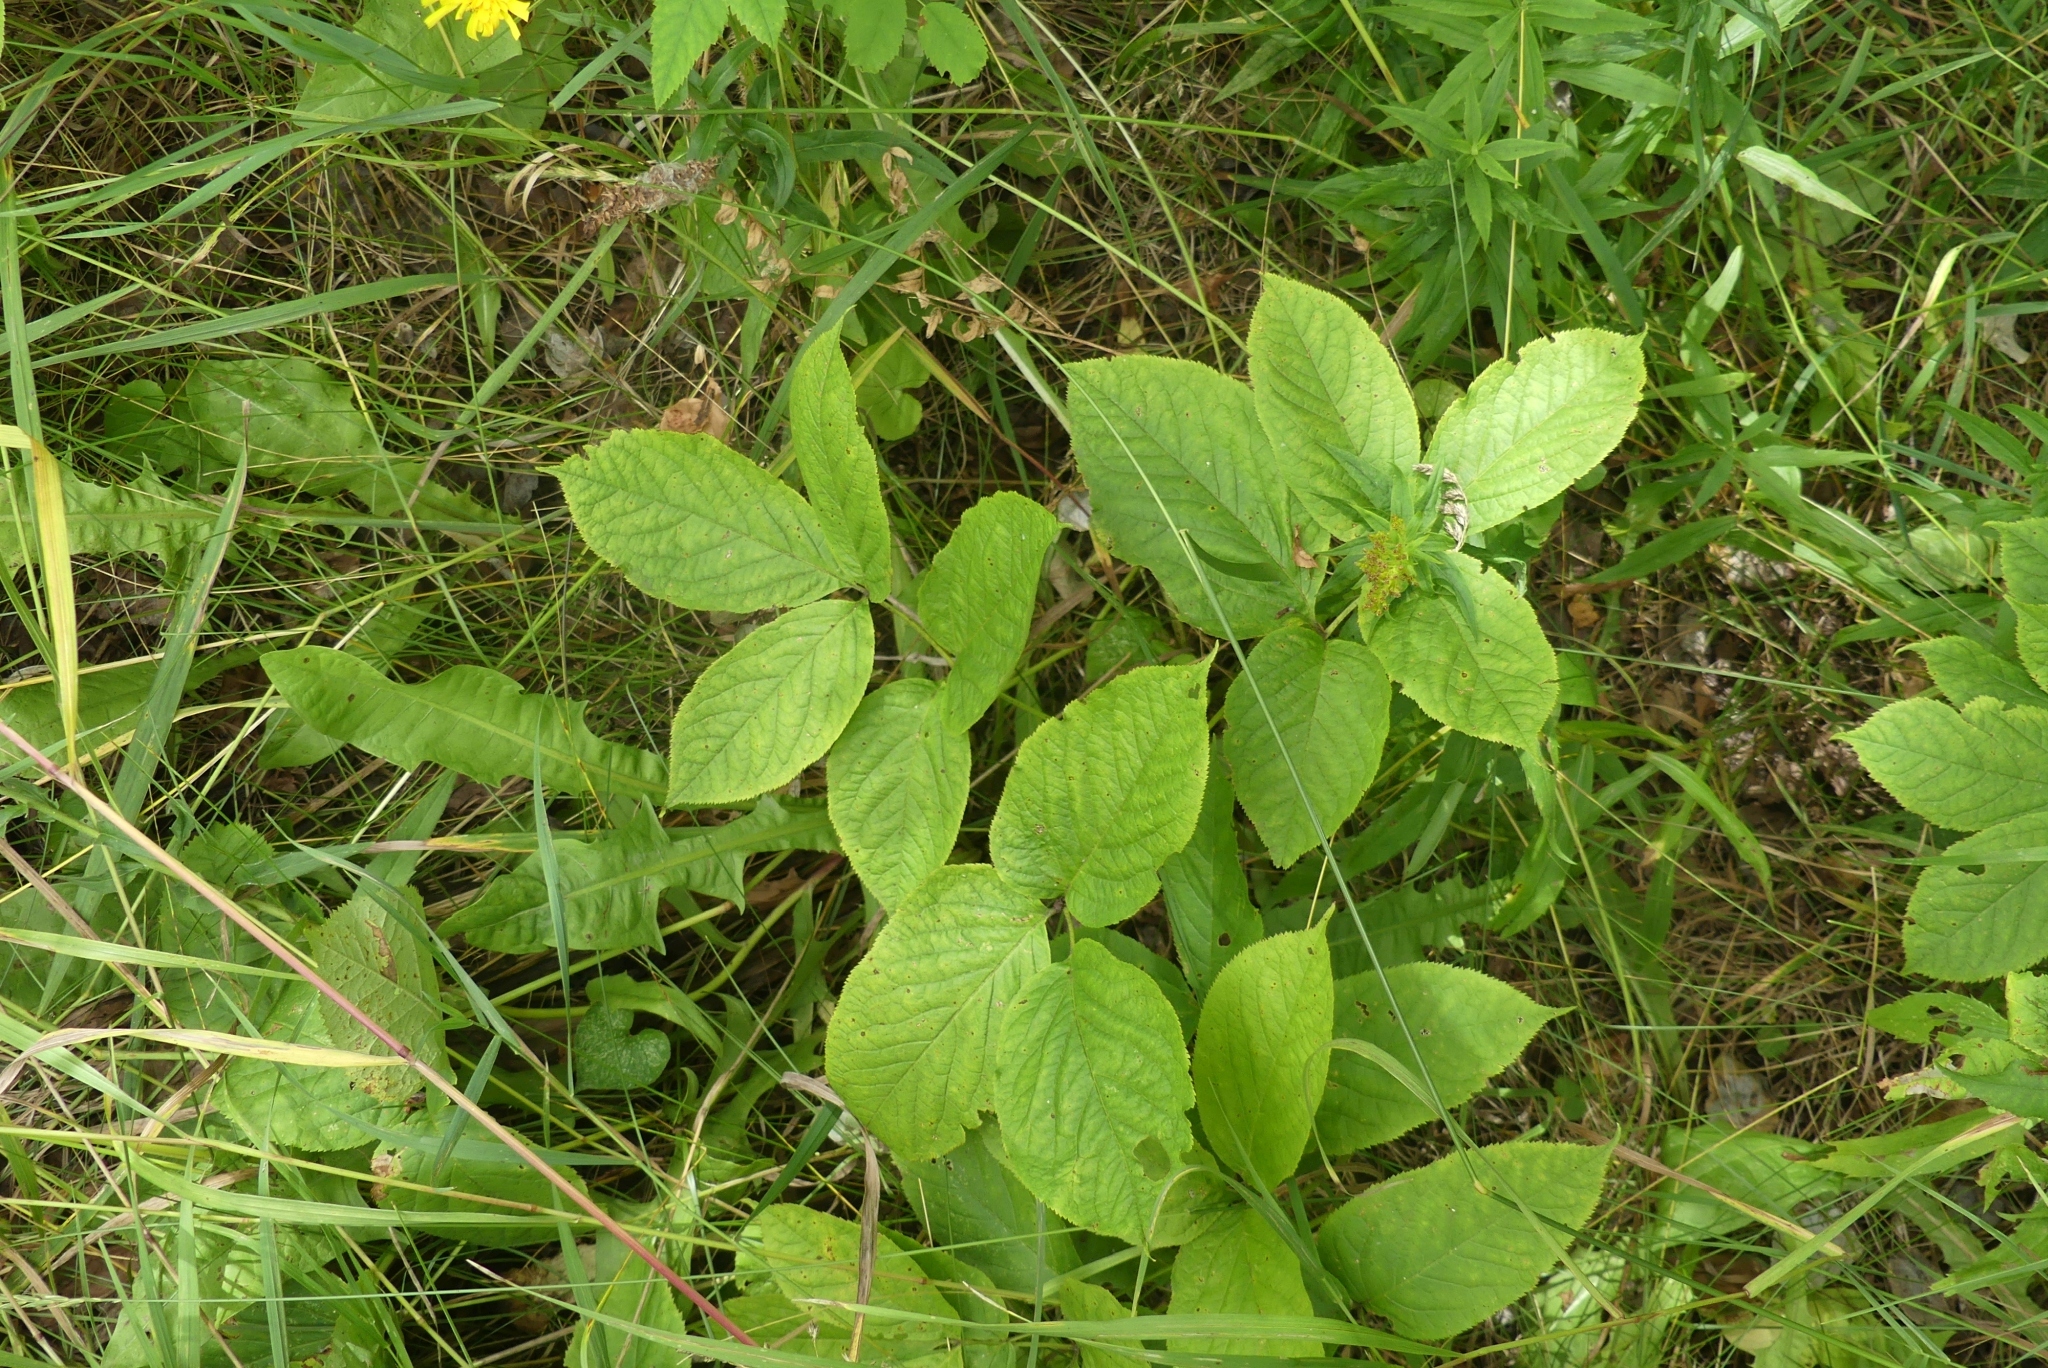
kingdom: Plantae
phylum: Tracheophyta
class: Magnoliopsida
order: Apiales
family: Araliaceae
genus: Aralia
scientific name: Aralia nudicaulis
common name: Wild sarsaparilla
